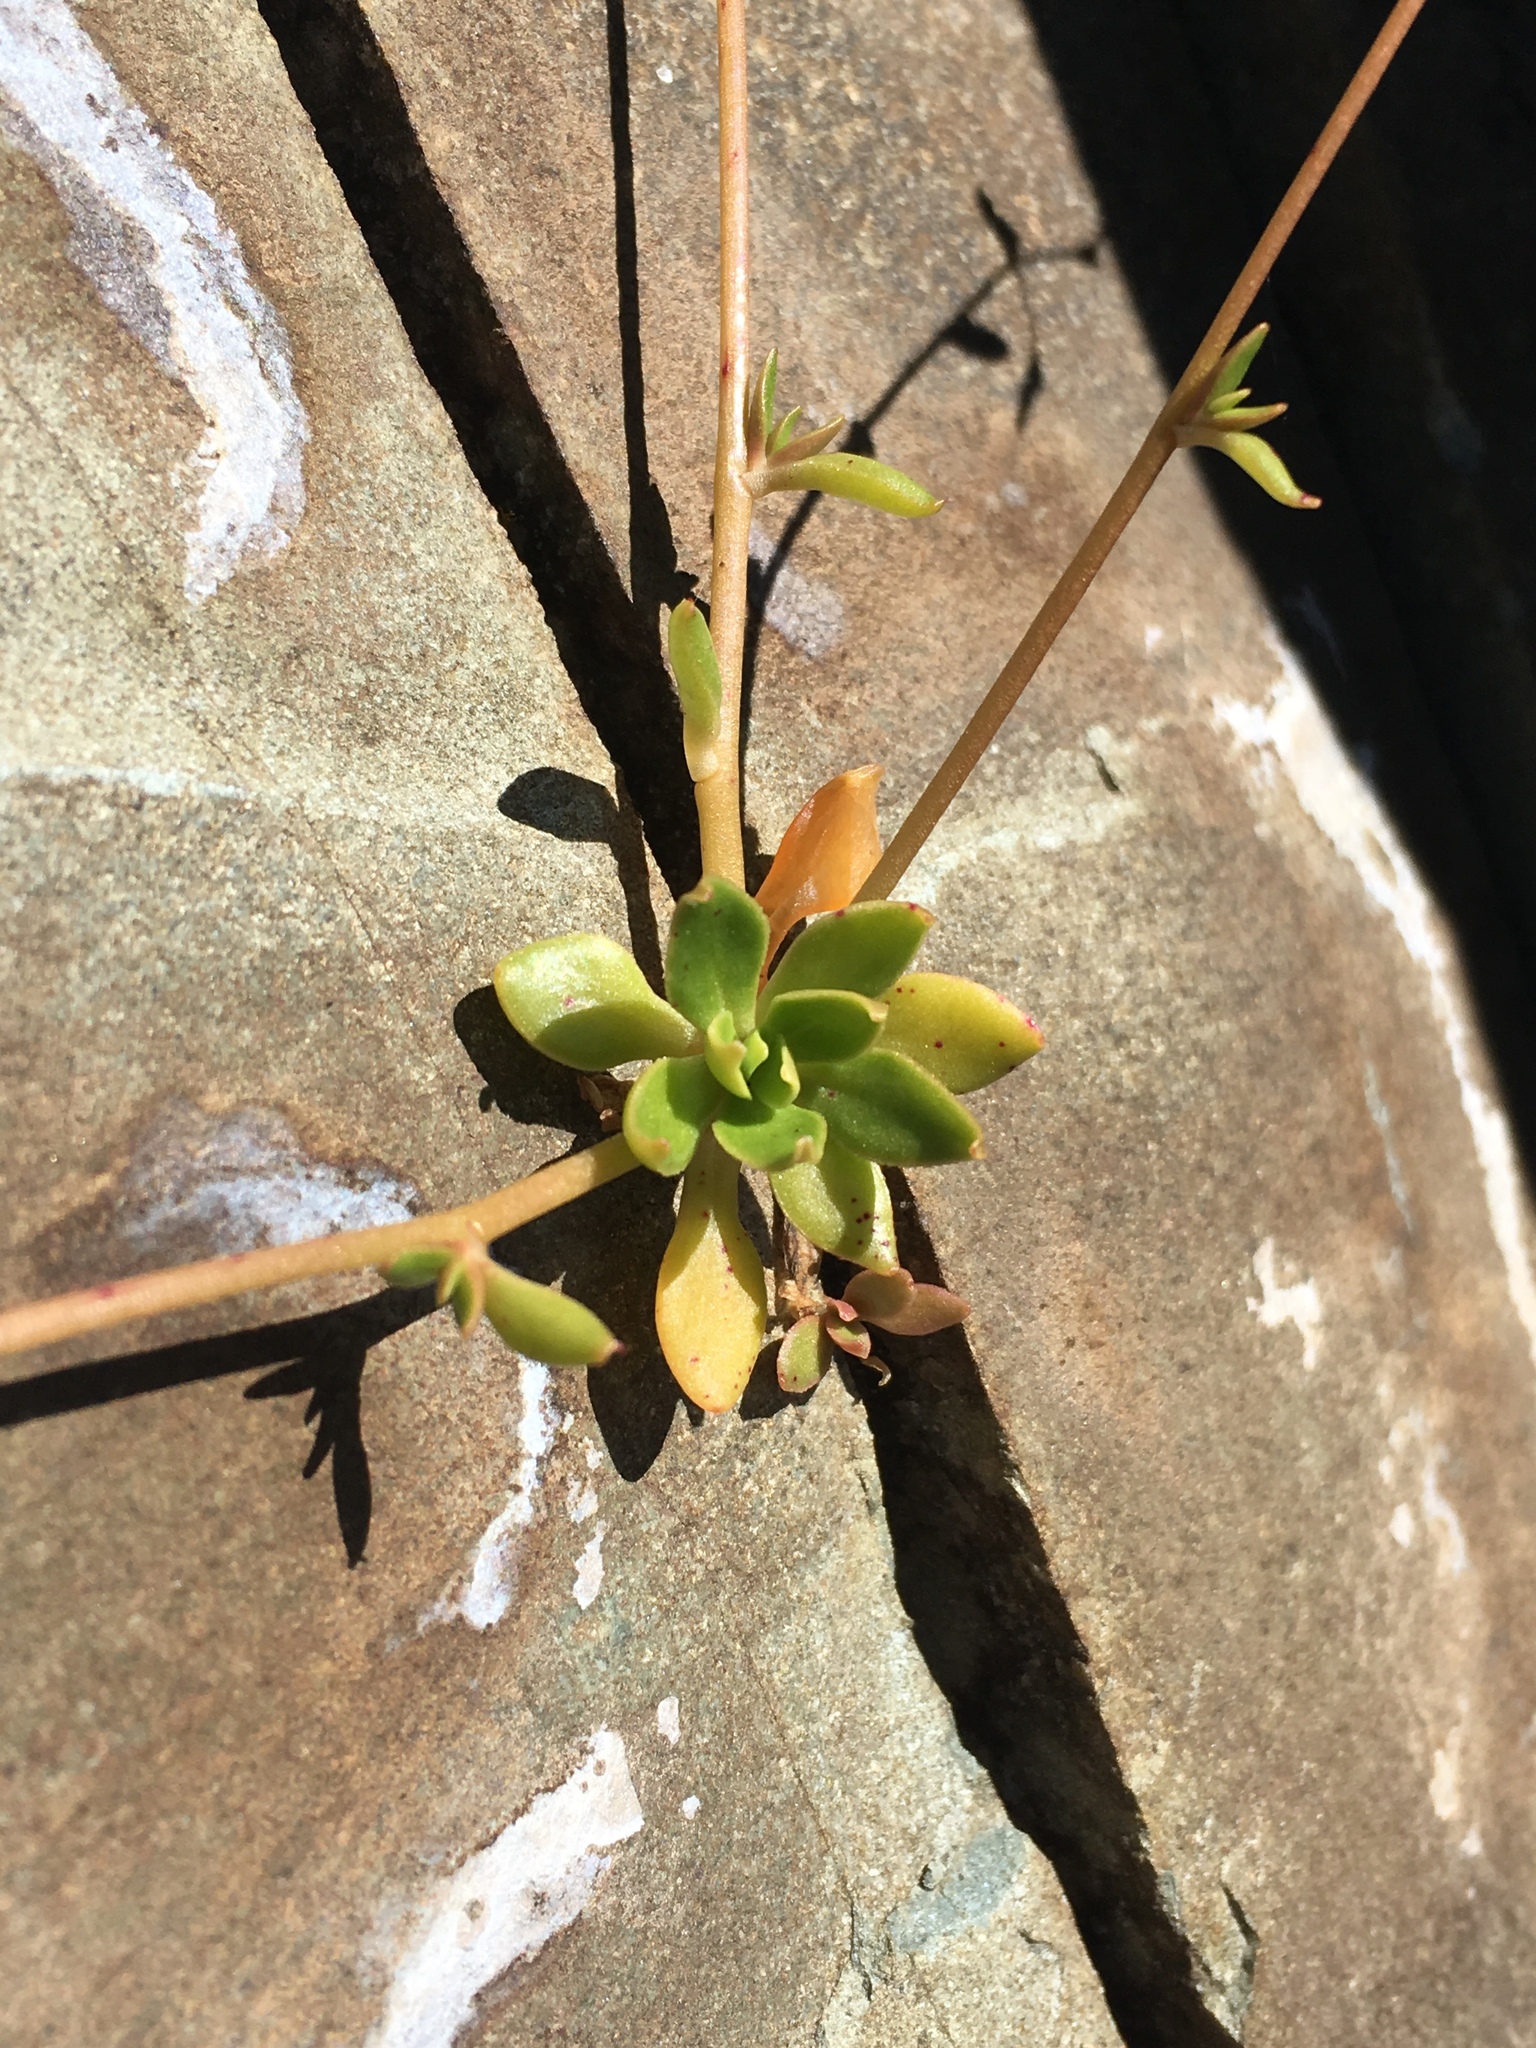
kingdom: Plantae
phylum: Tracheophyta
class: Magnoliopsida
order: Caryophyllales
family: Montiaceae
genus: Montia
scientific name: Montia parvifolia
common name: Small-leaved blinks
